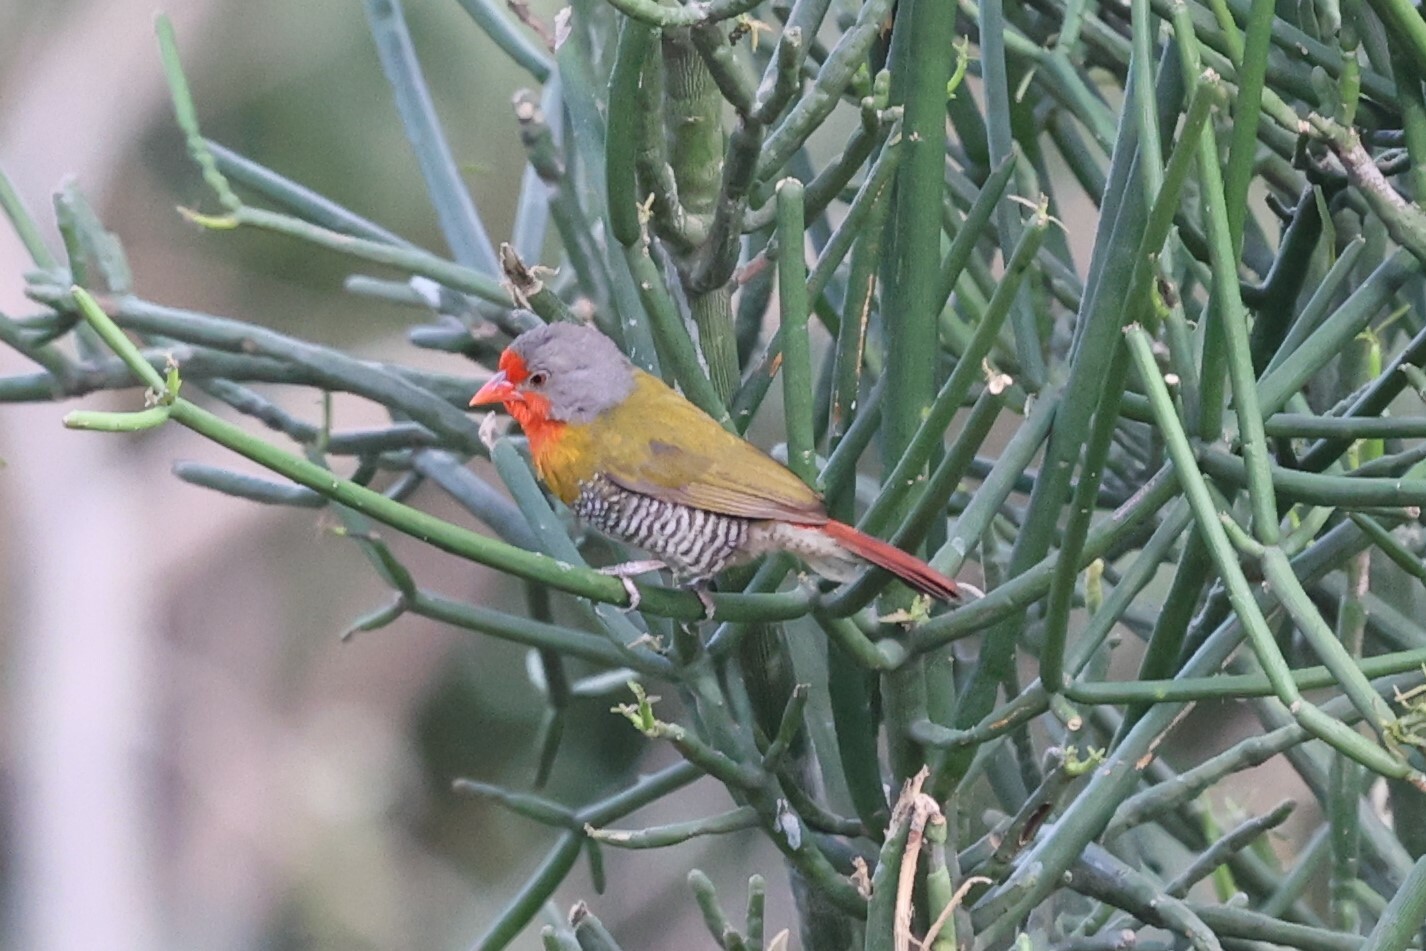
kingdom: Animalia
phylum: Chordata
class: Aves
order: Passeriformes
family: Estrildidae
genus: Pytilia
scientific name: Pytilia melba
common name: Green-winged pytilia
